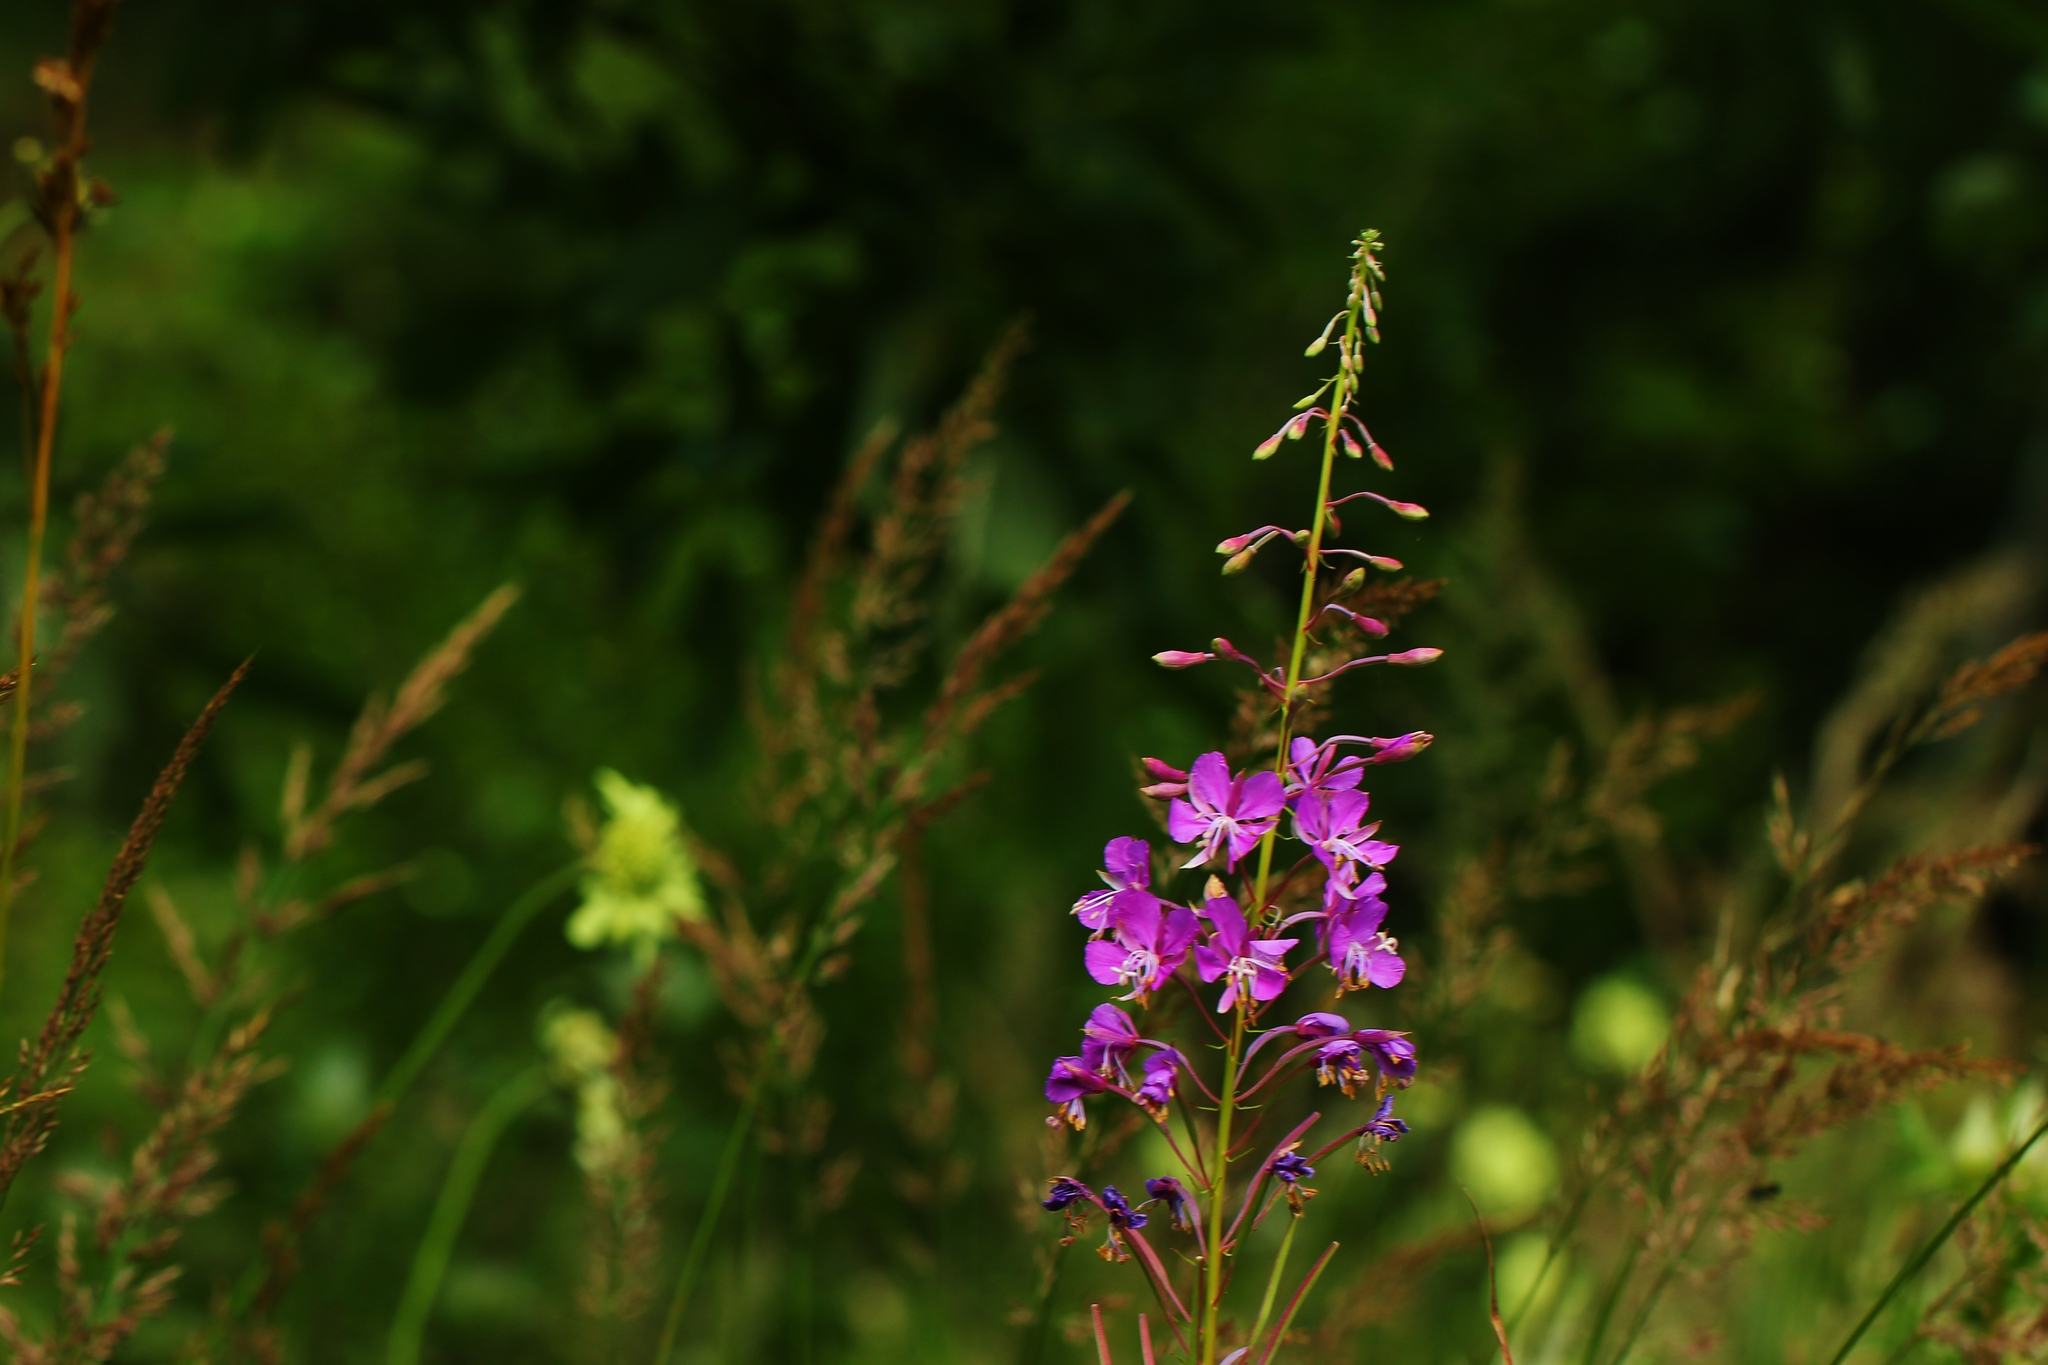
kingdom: Plantae
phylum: Tracheophyta
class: Magnoliopsida
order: Myrtales
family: Onagraceae
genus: Chamaenerion
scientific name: Chamaenerion angustifolium
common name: Fireweed
